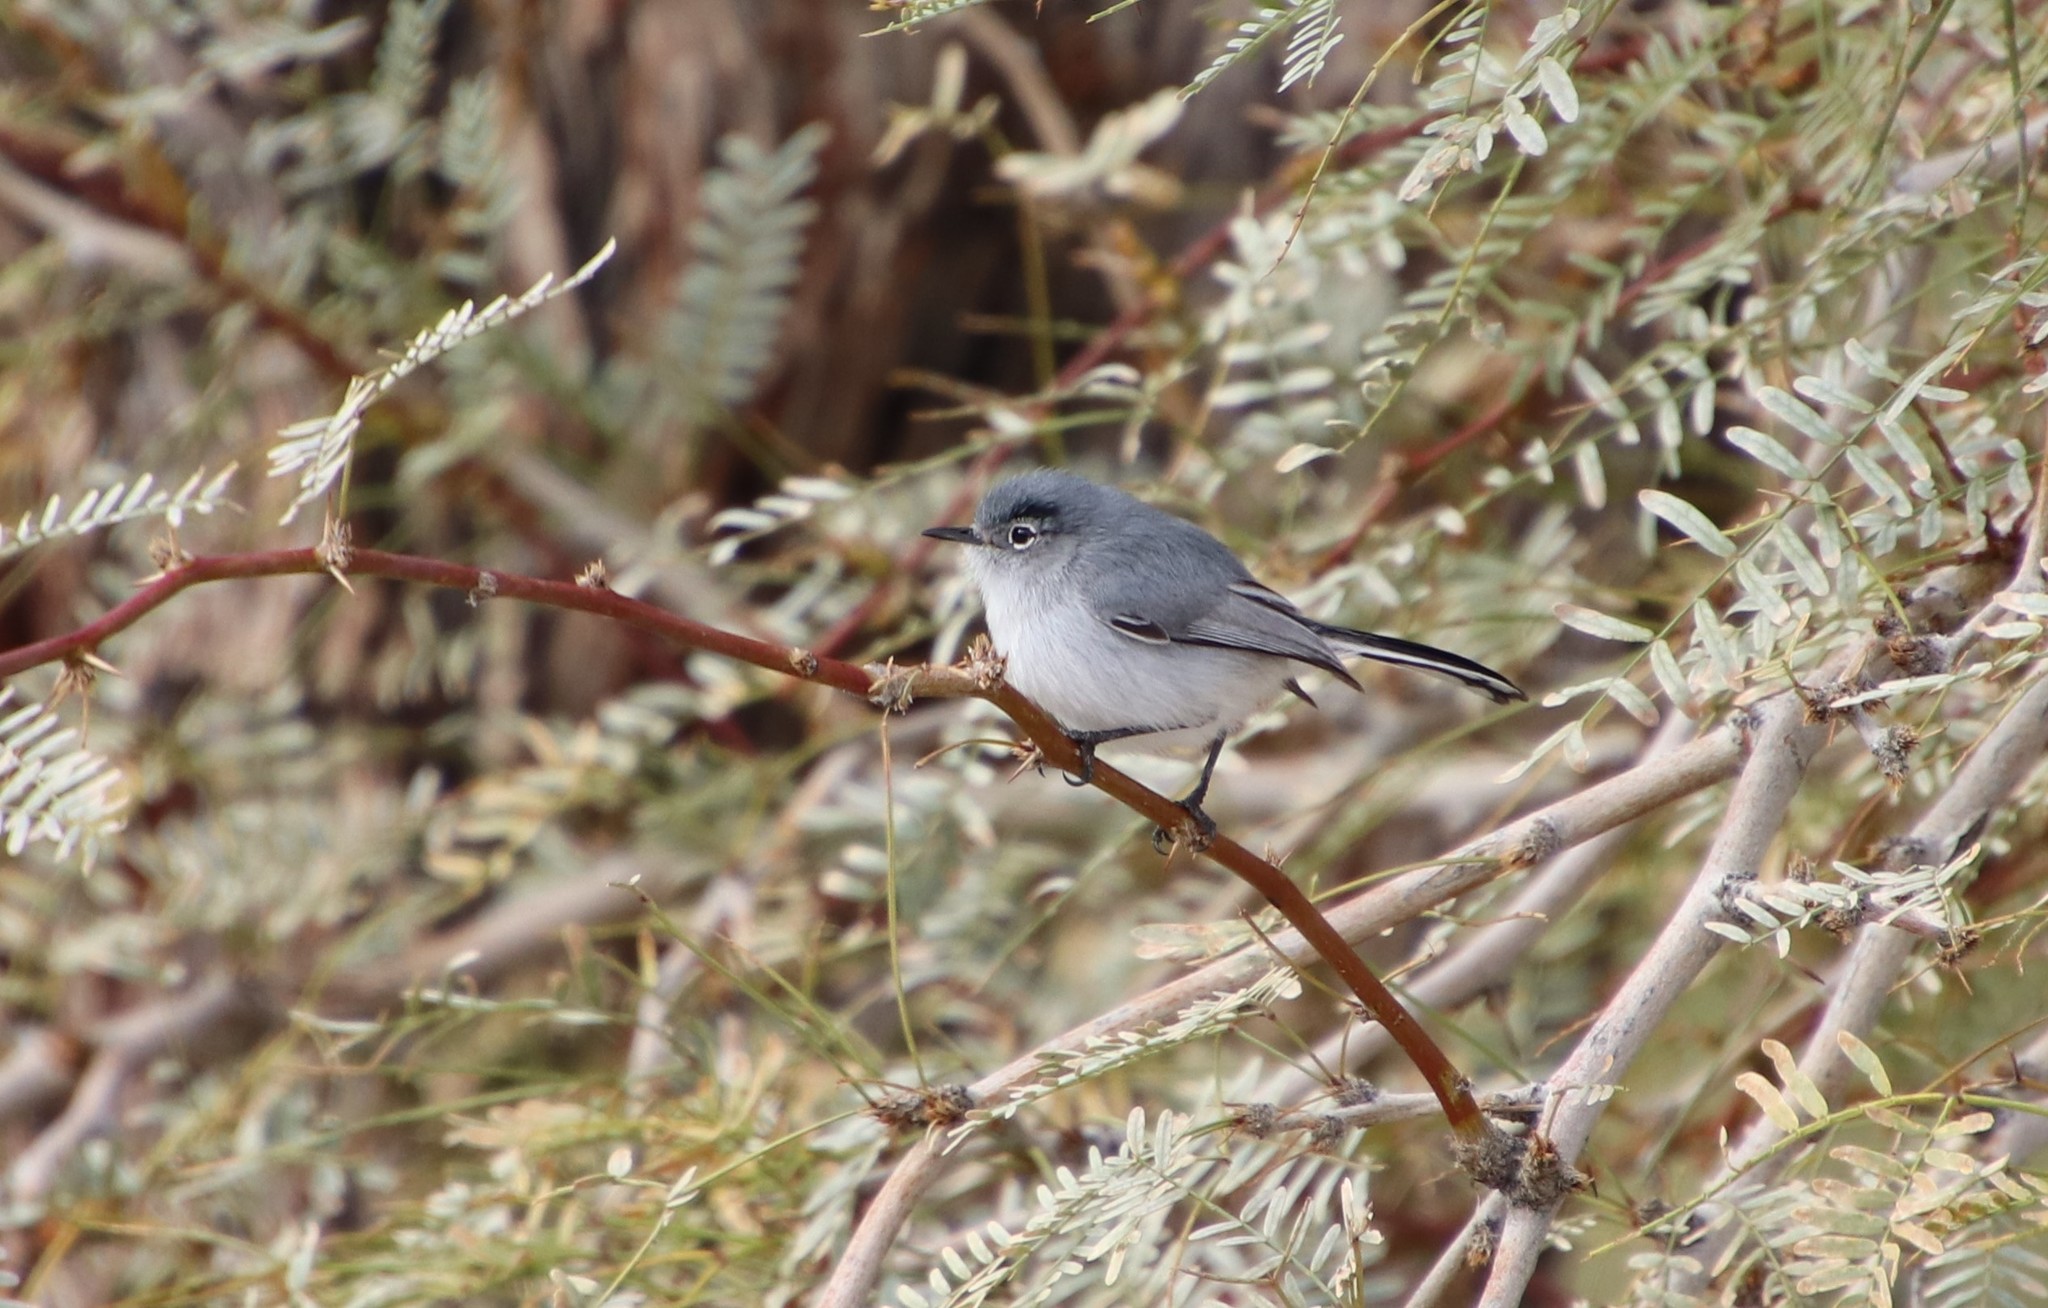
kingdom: Animalia
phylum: Chordata
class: Aves
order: Passeriformes
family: Polioptilidae
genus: Polioptila
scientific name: Polioptila melanura
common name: Black-tailed gnatcatcher
